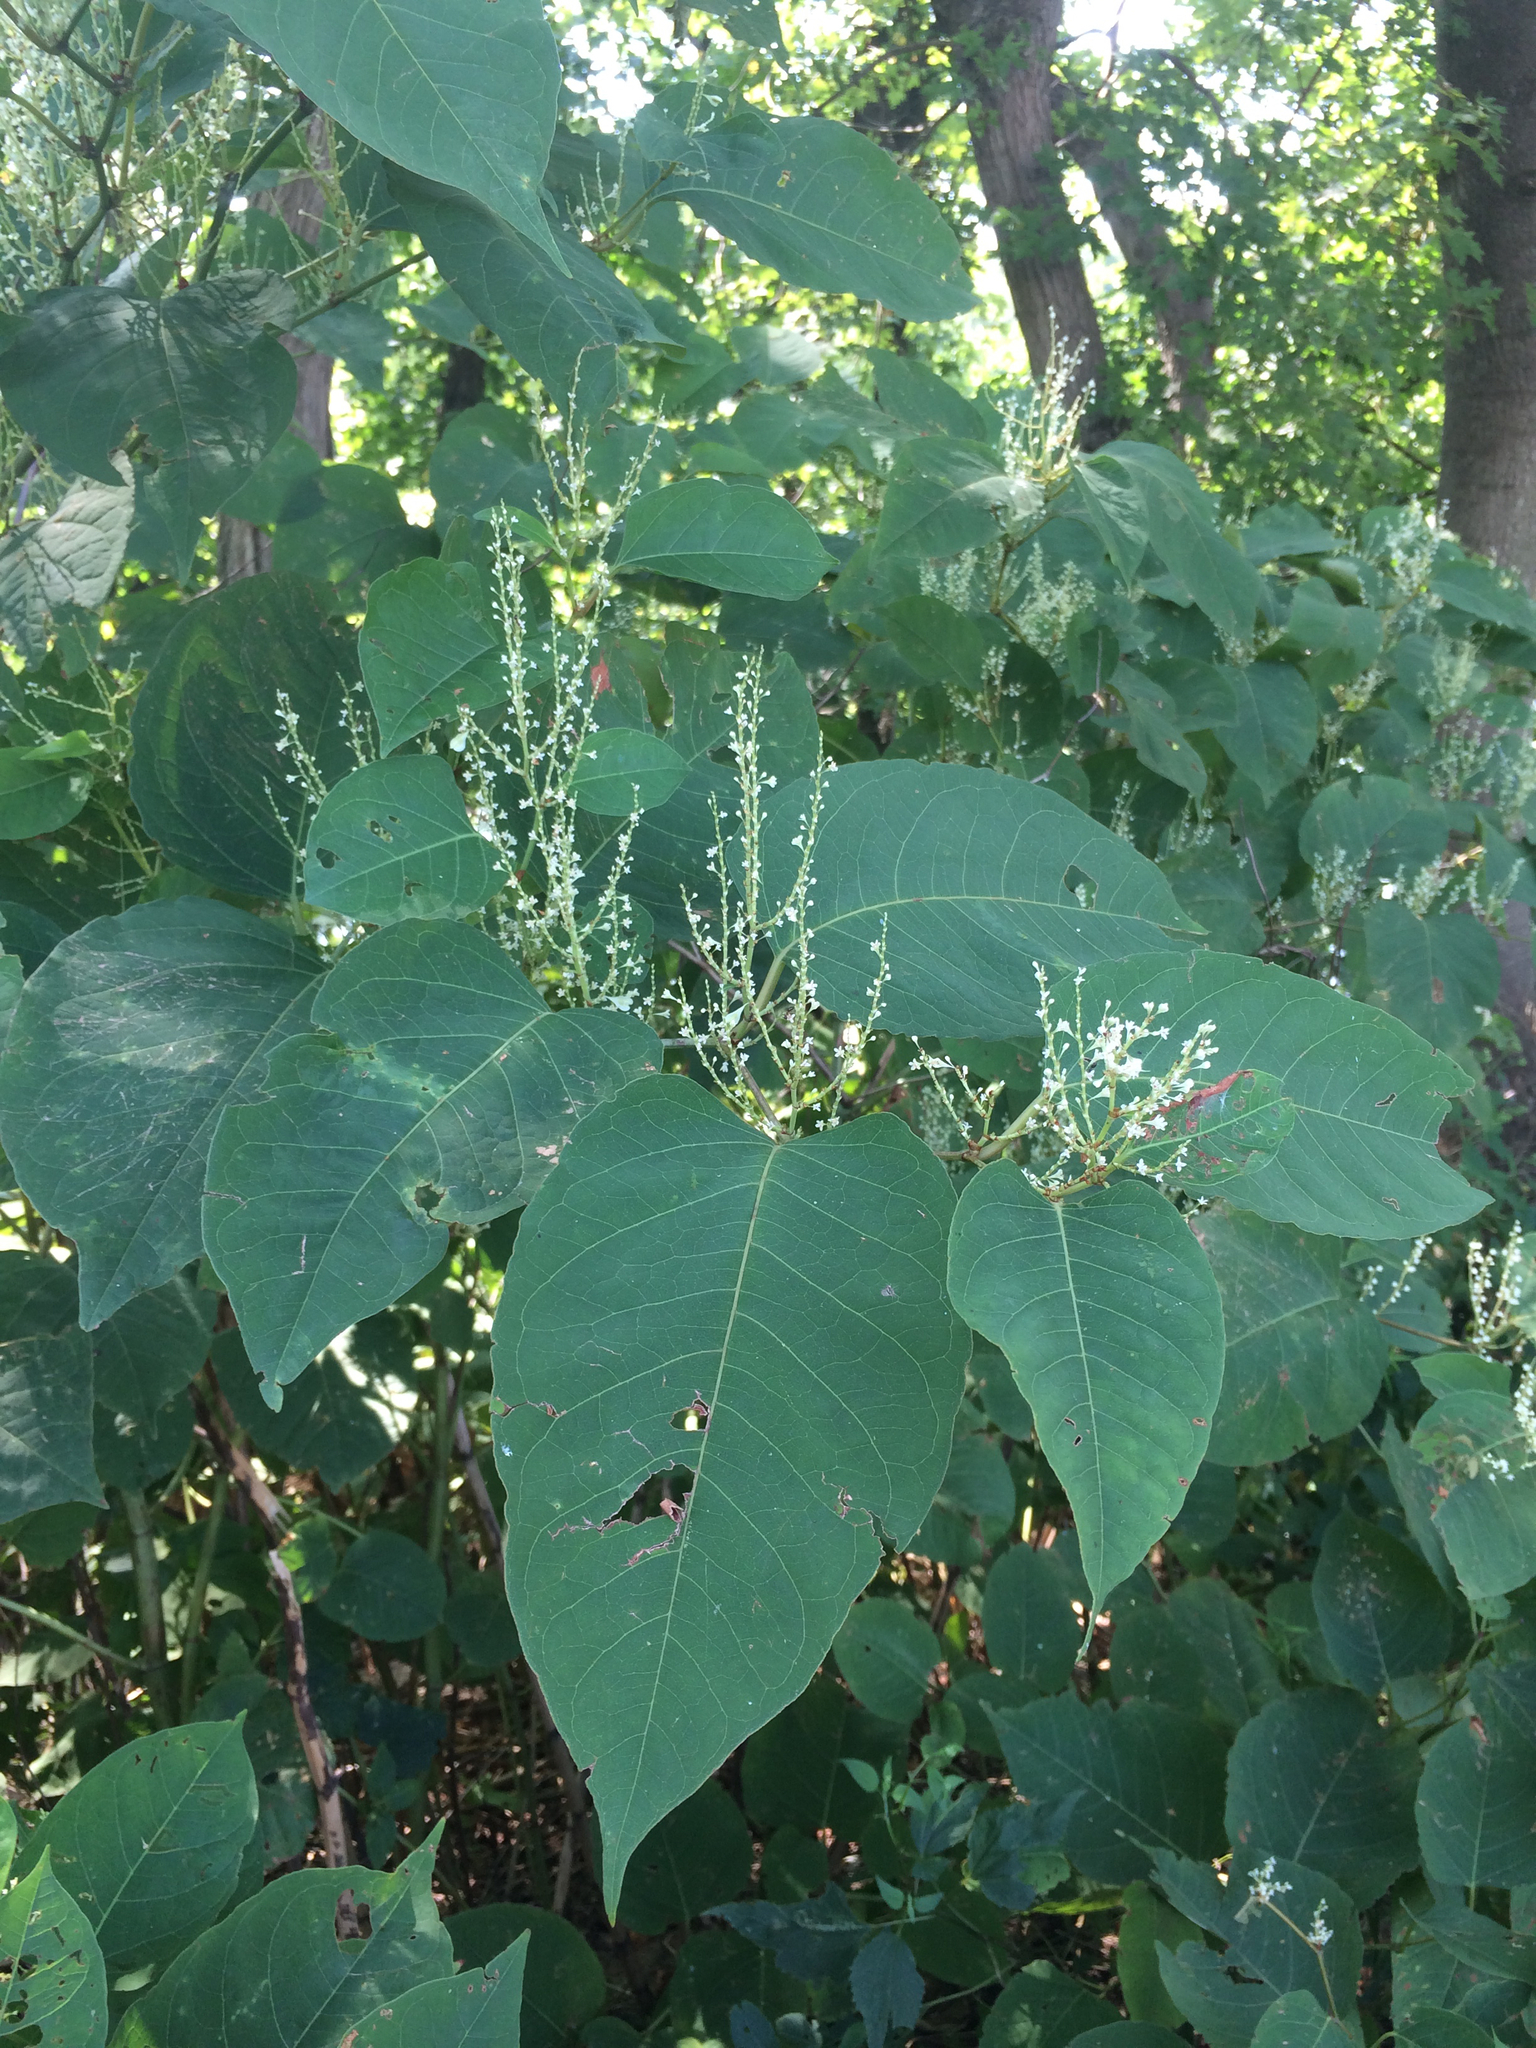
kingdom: Plantae
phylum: Tracheophyta
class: Magnoliopsida
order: Caryophyllales
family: Polygonaceae
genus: Reynoutria
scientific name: Reynoutria japonica
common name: Japanese knotweed
